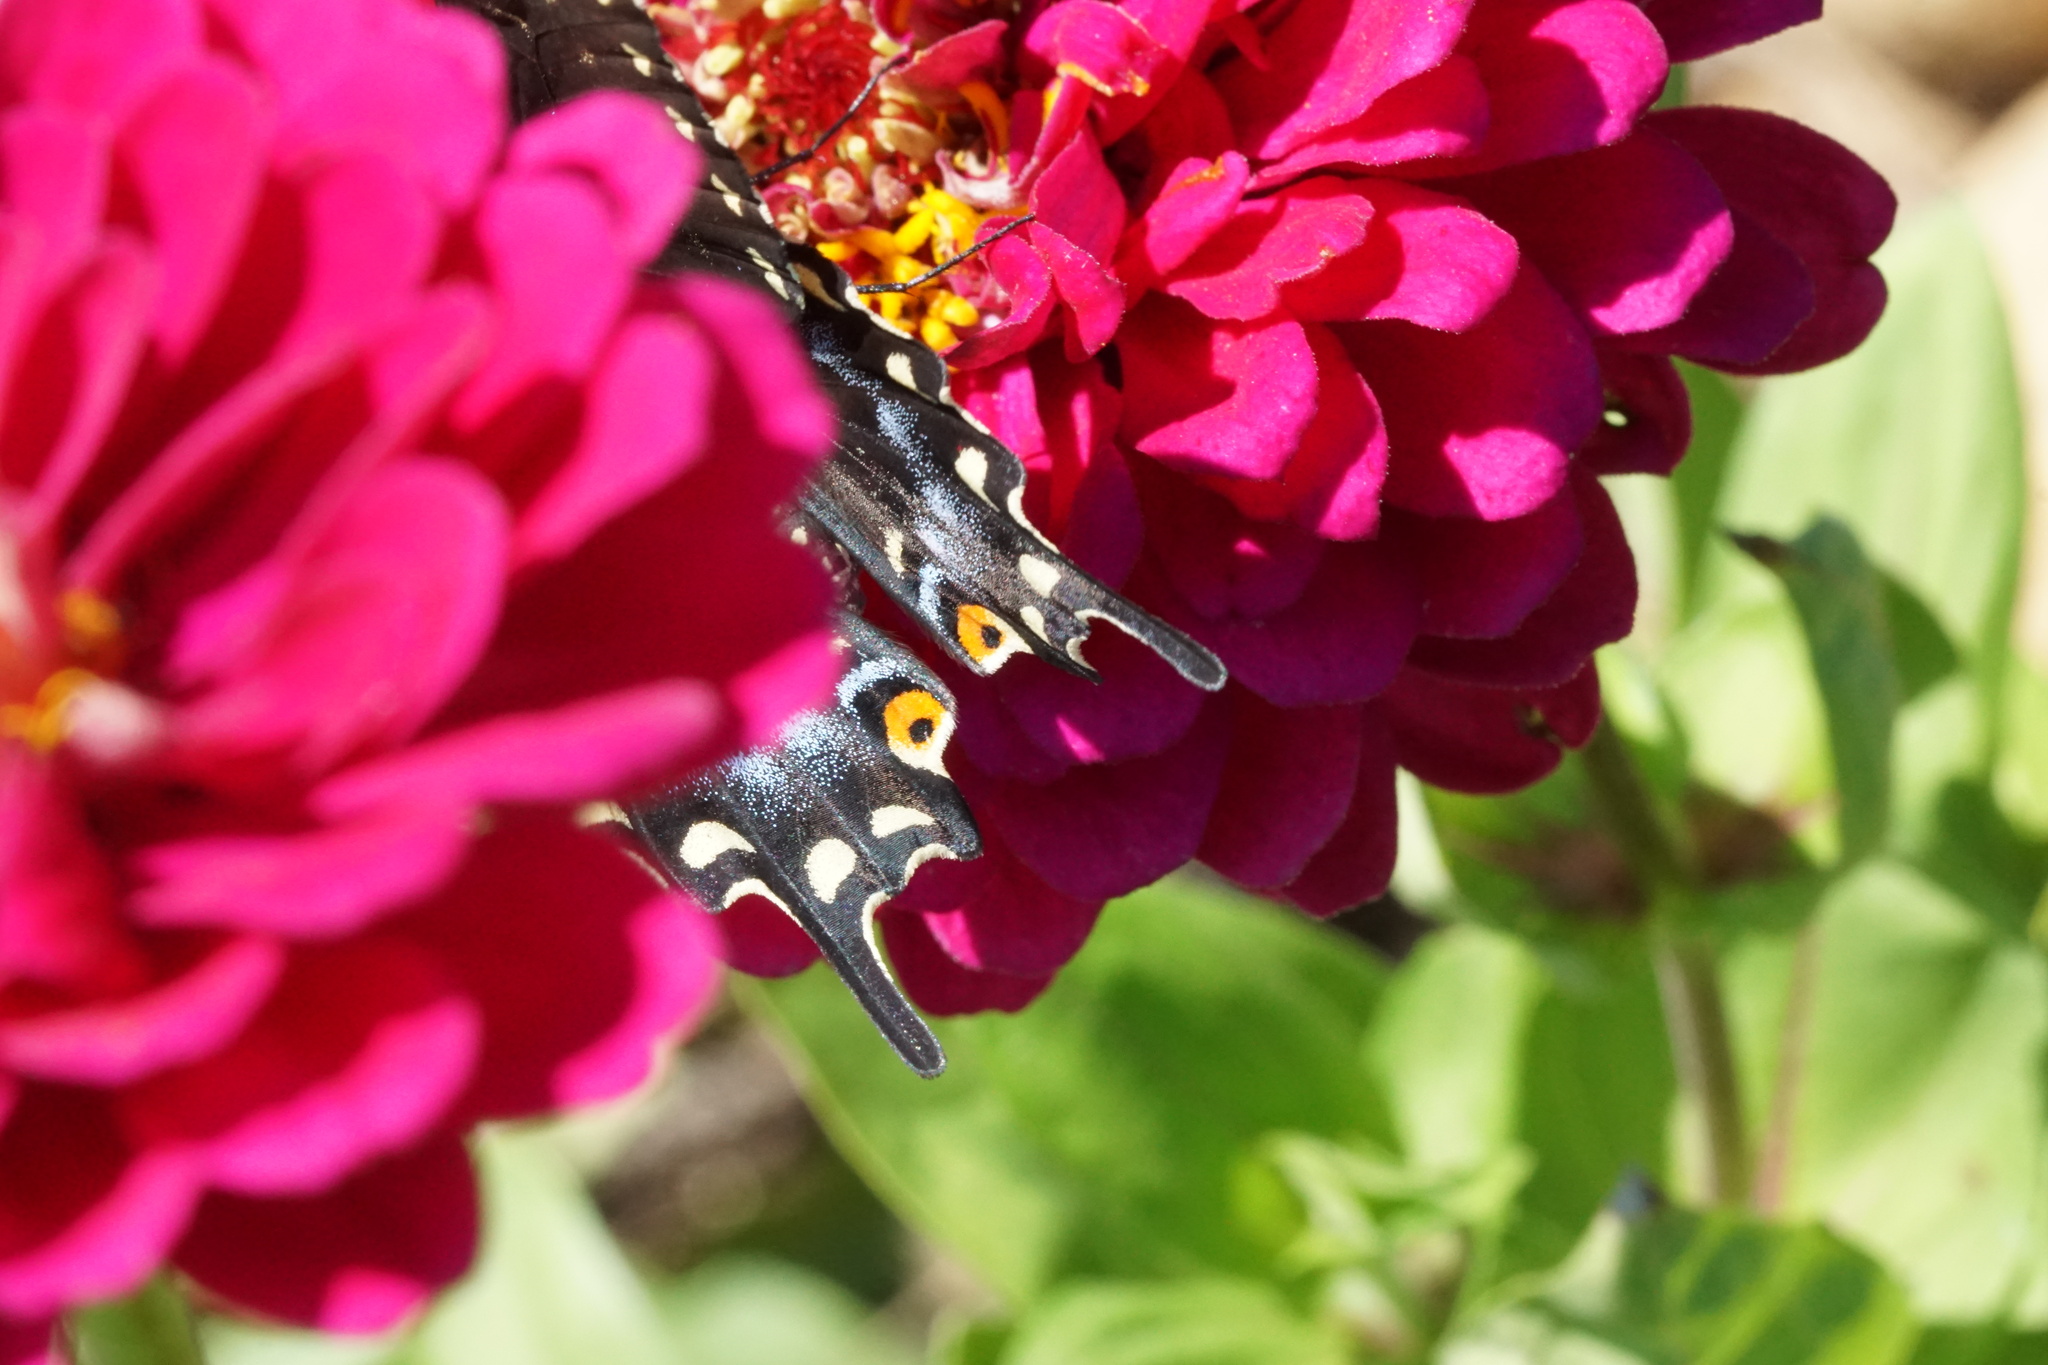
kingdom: Animalia
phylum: Arthropoda
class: Insecta
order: Lepidoptera
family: Papilionidae
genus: Papilio
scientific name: Papilio polyxenes
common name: Black swallowtail
